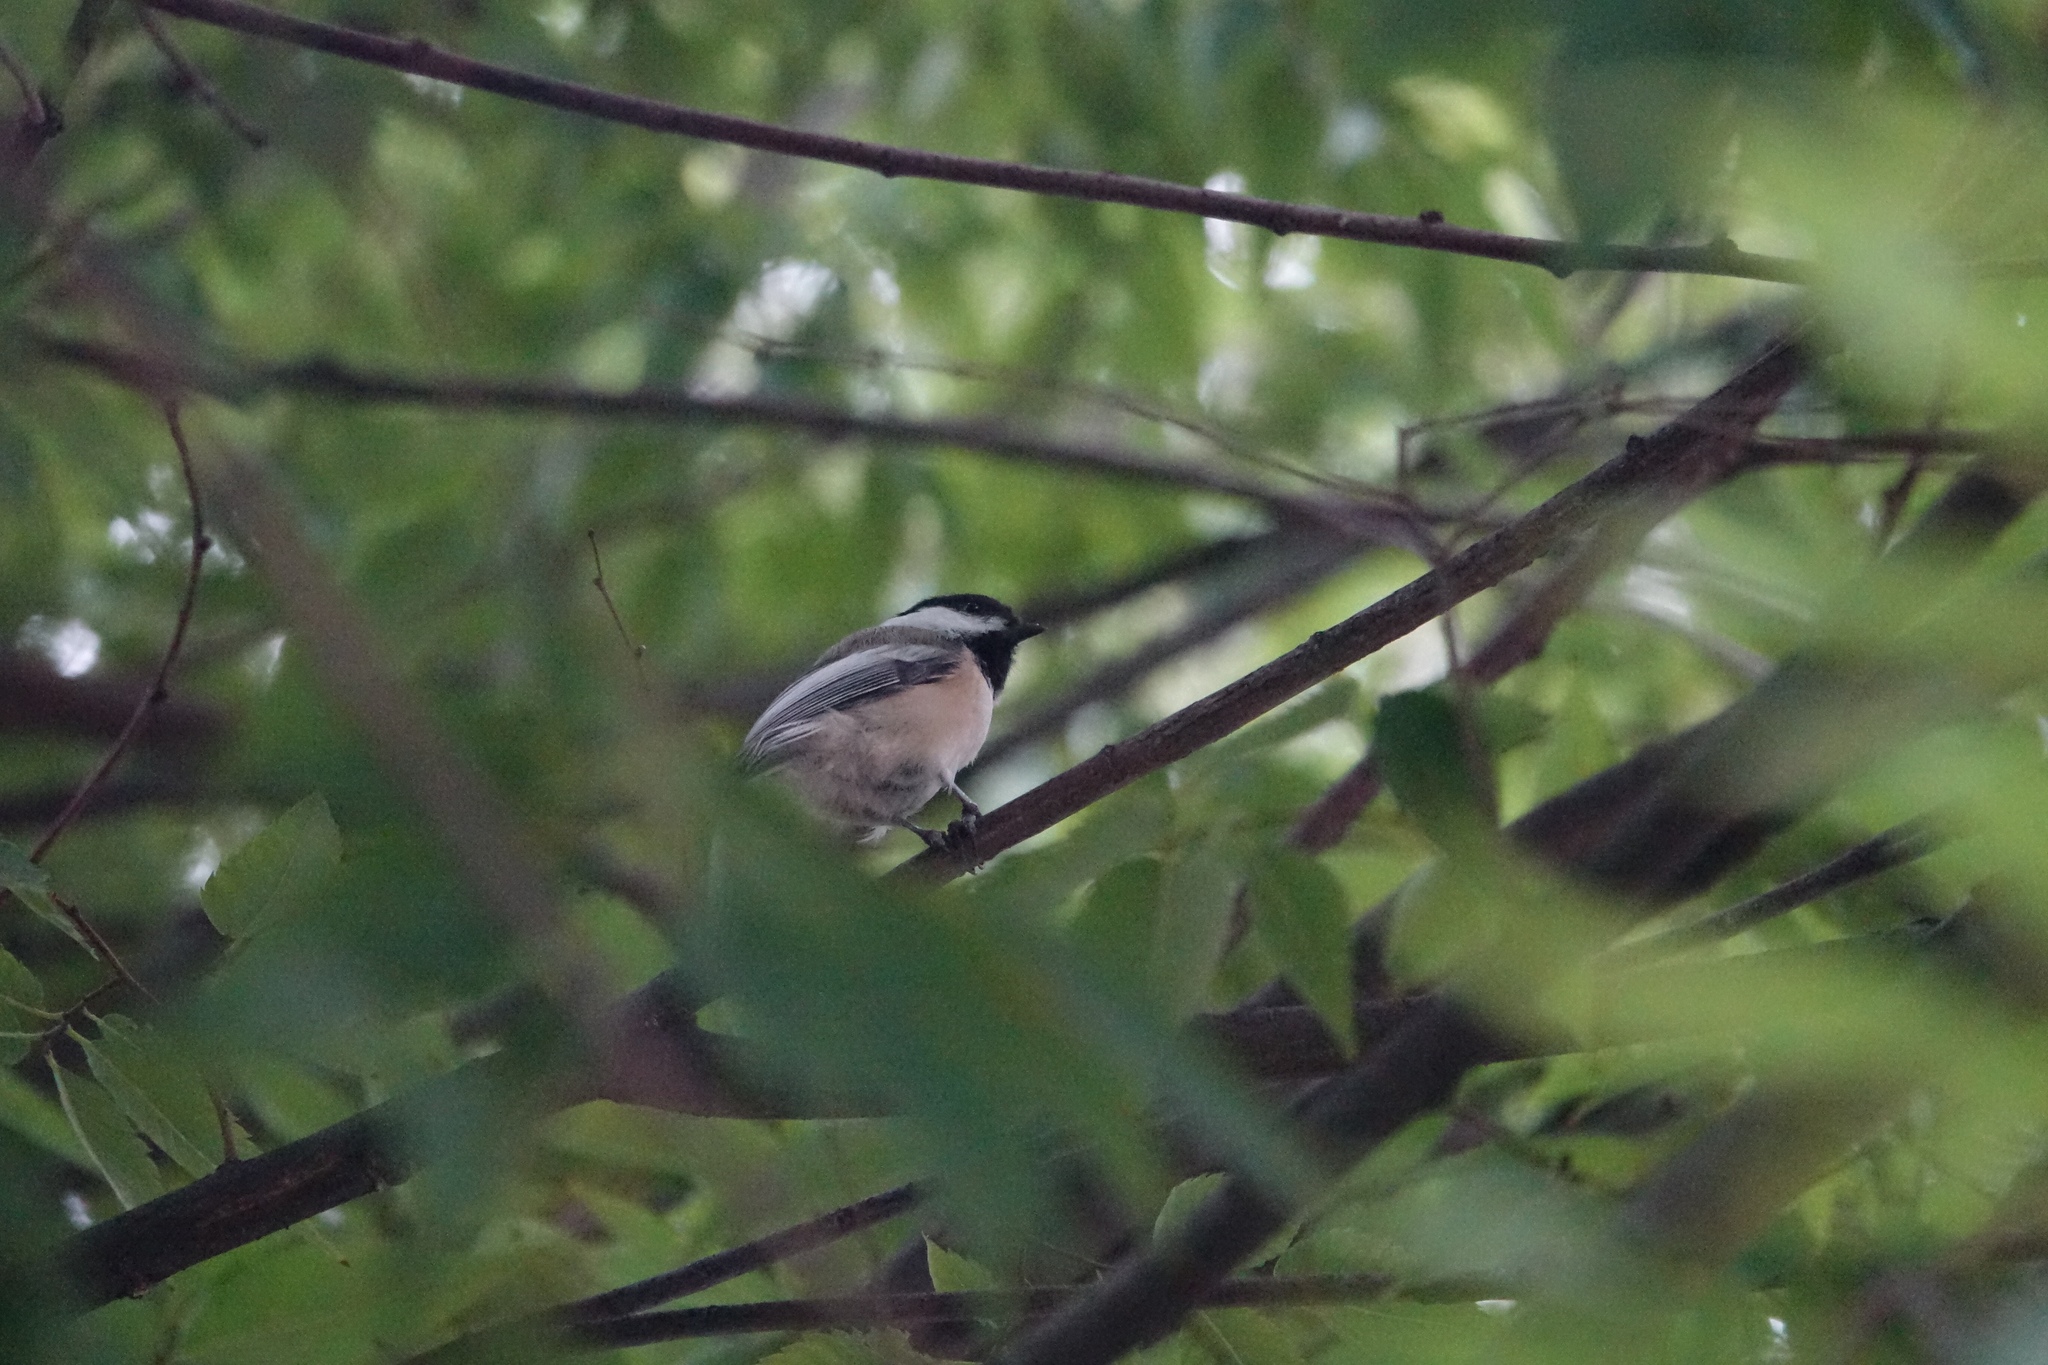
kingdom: Animalia
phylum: Chordata
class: Aves
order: Passeriformes
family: Paridae
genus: Poecile
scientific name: Poecile atricapillus
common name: Black-capped chickadee
